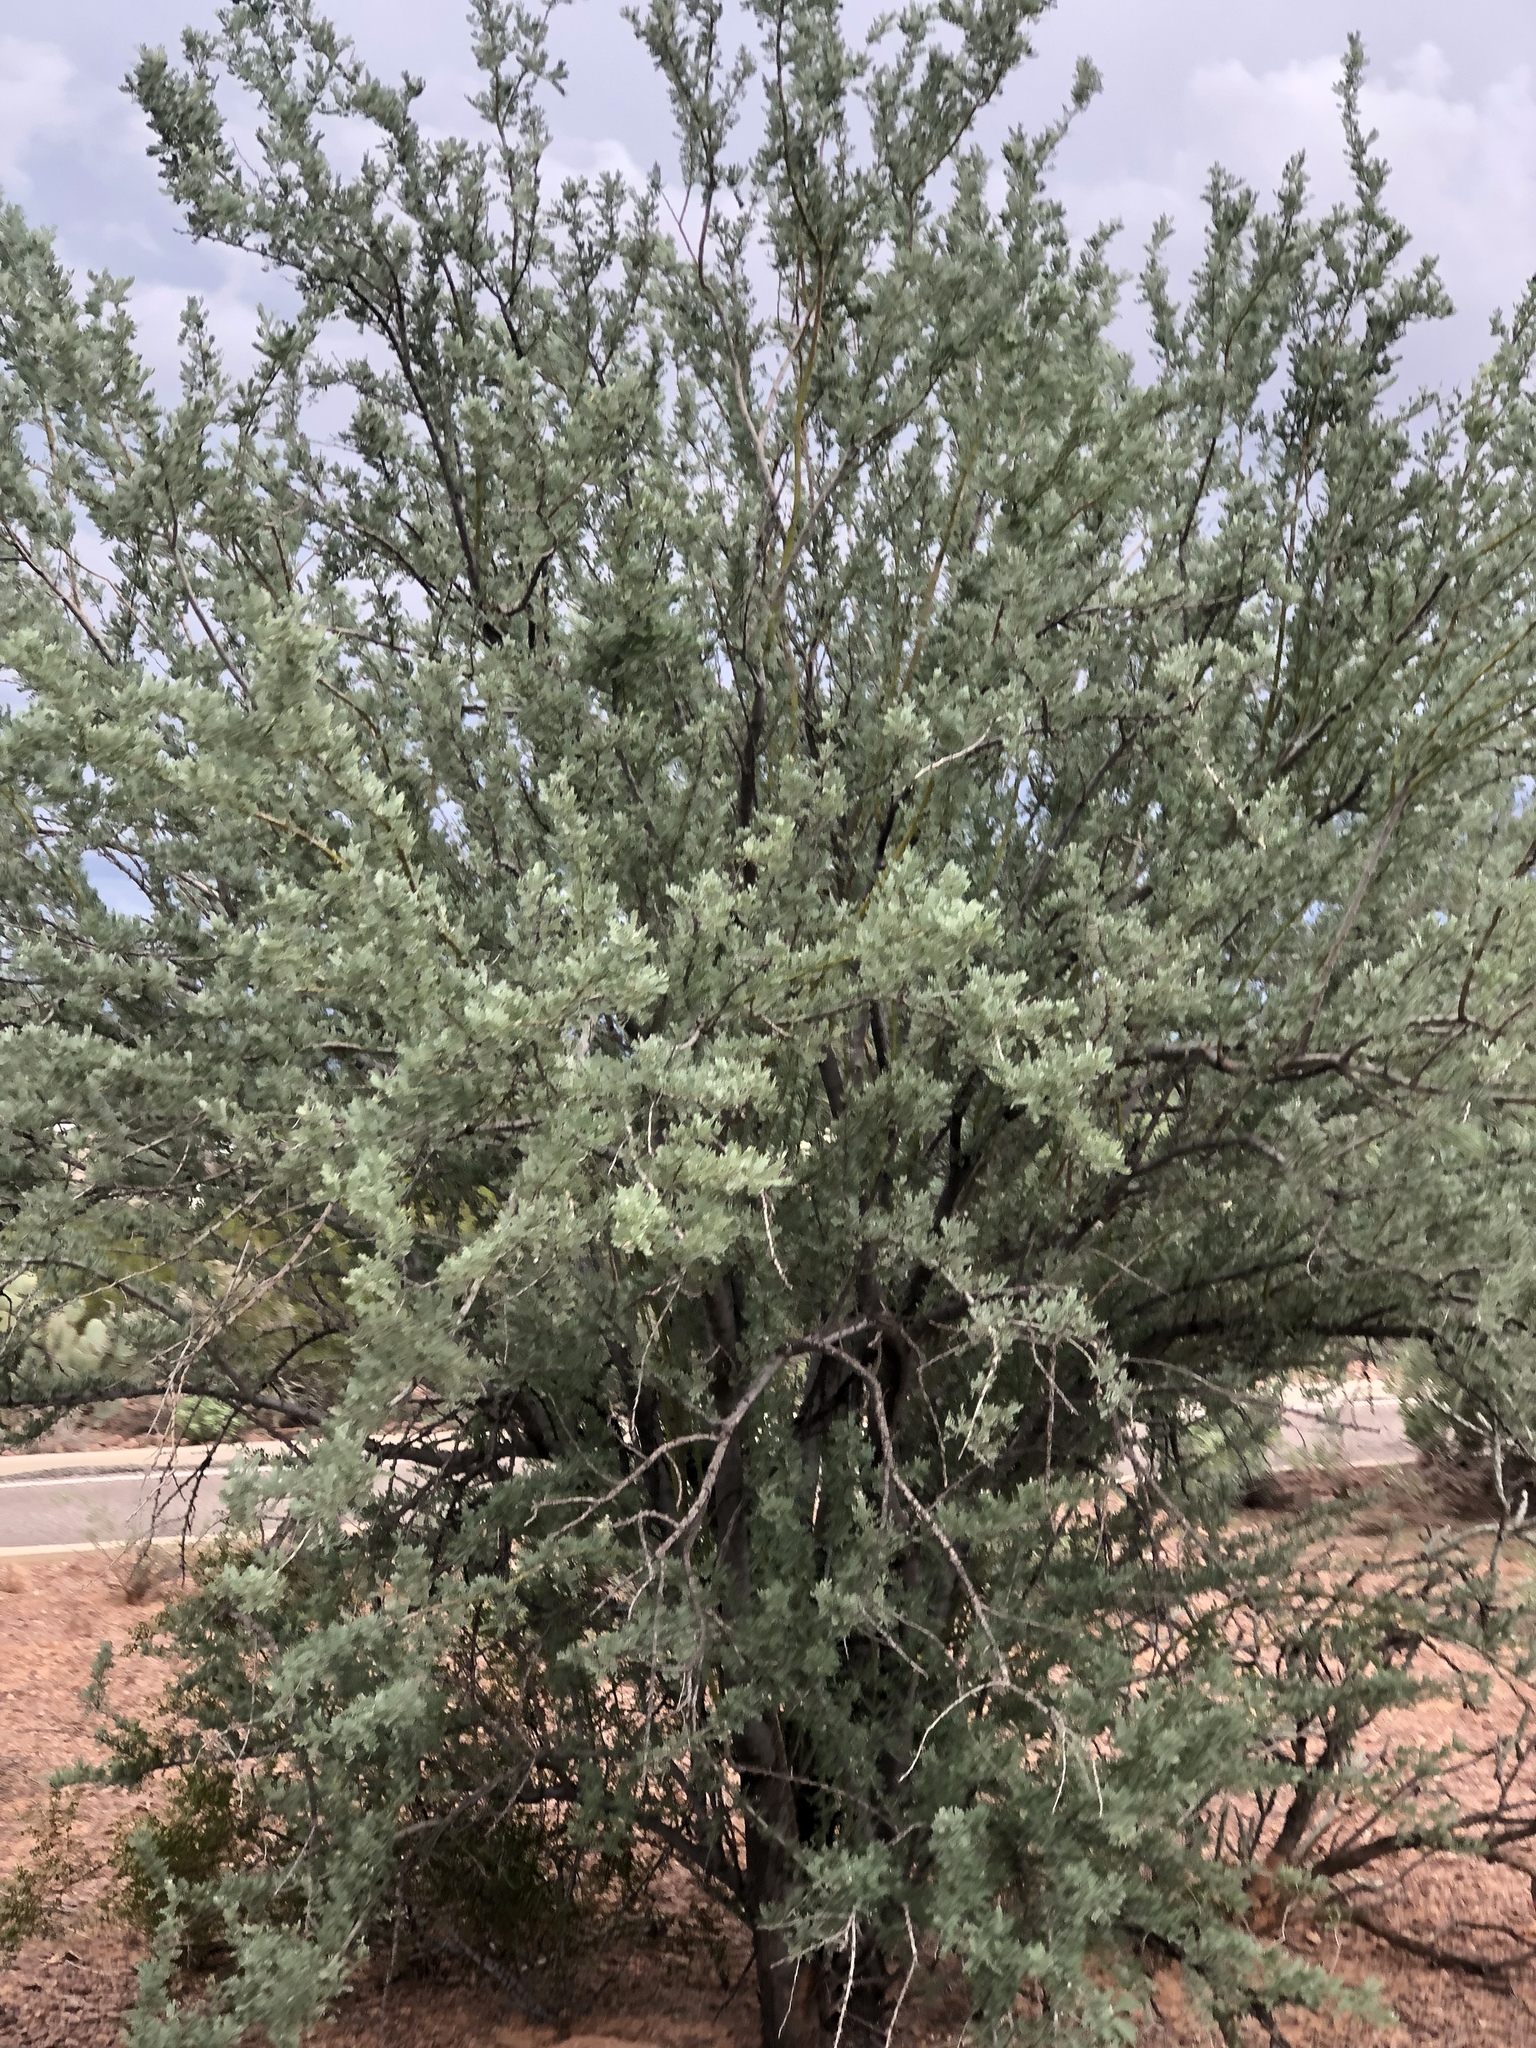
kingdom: Plantae
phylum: Tracheophyta
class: Magnoliopsida
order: Fabales
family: Fabaceae
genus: Olneya
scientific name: Olneya tesota
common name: Desert ironwood
